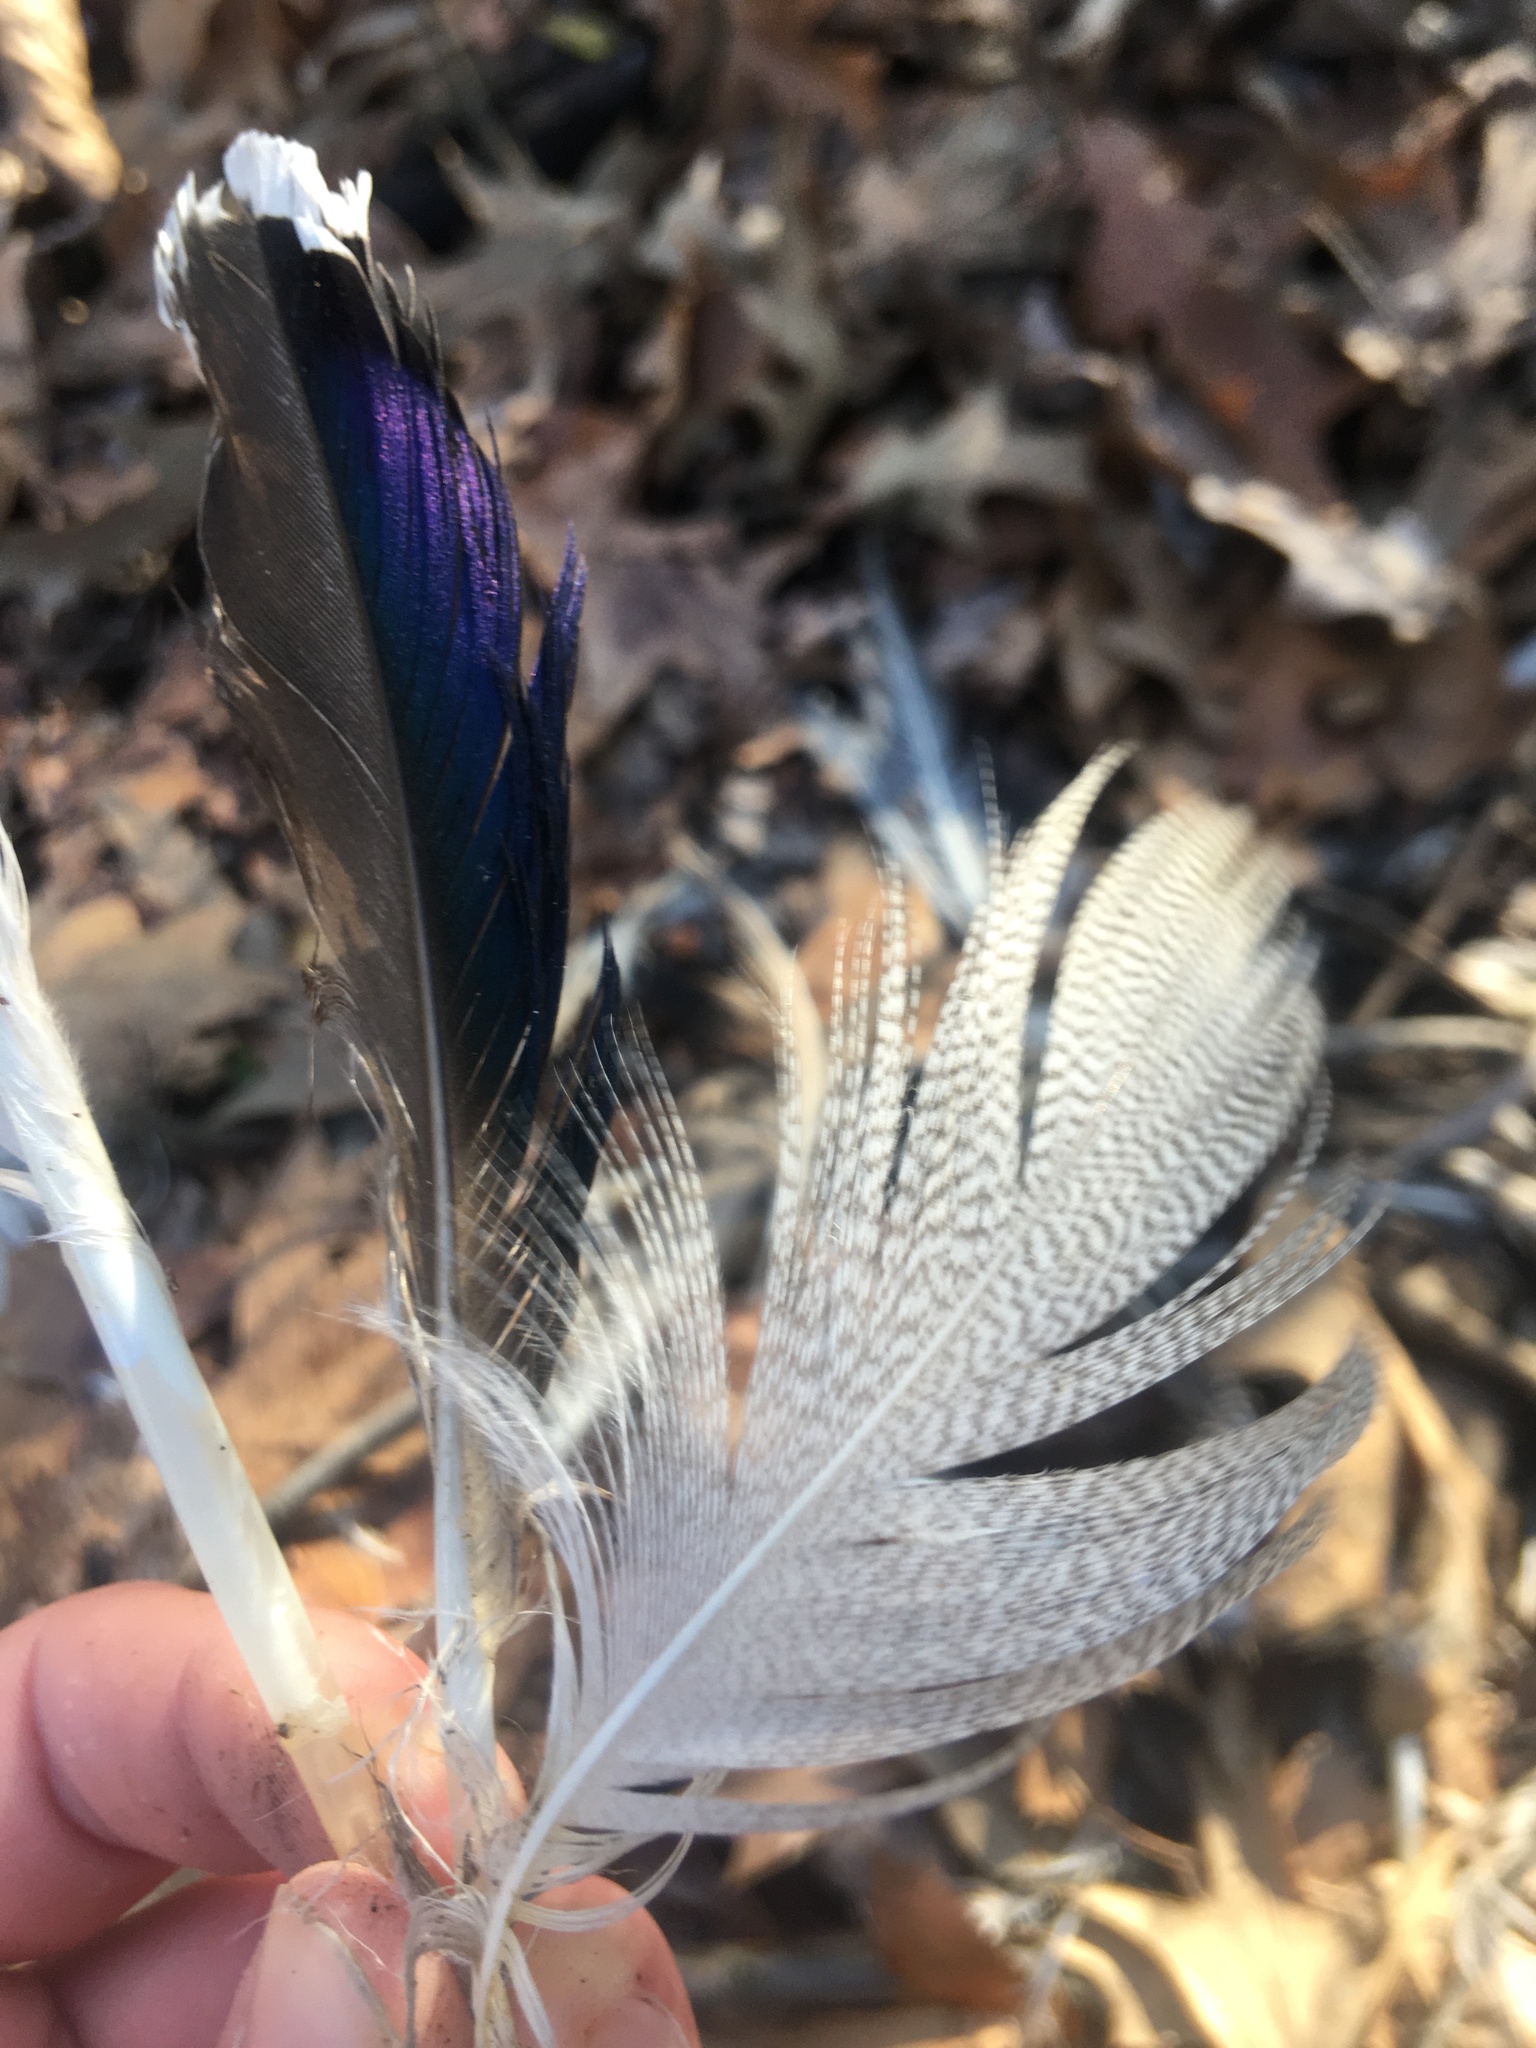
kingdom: Animalia
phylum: Chordata
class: Aves
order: Anseriformes
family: Anatidae
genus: Anas
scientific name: Anas platyrhynchos
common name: Mallard
